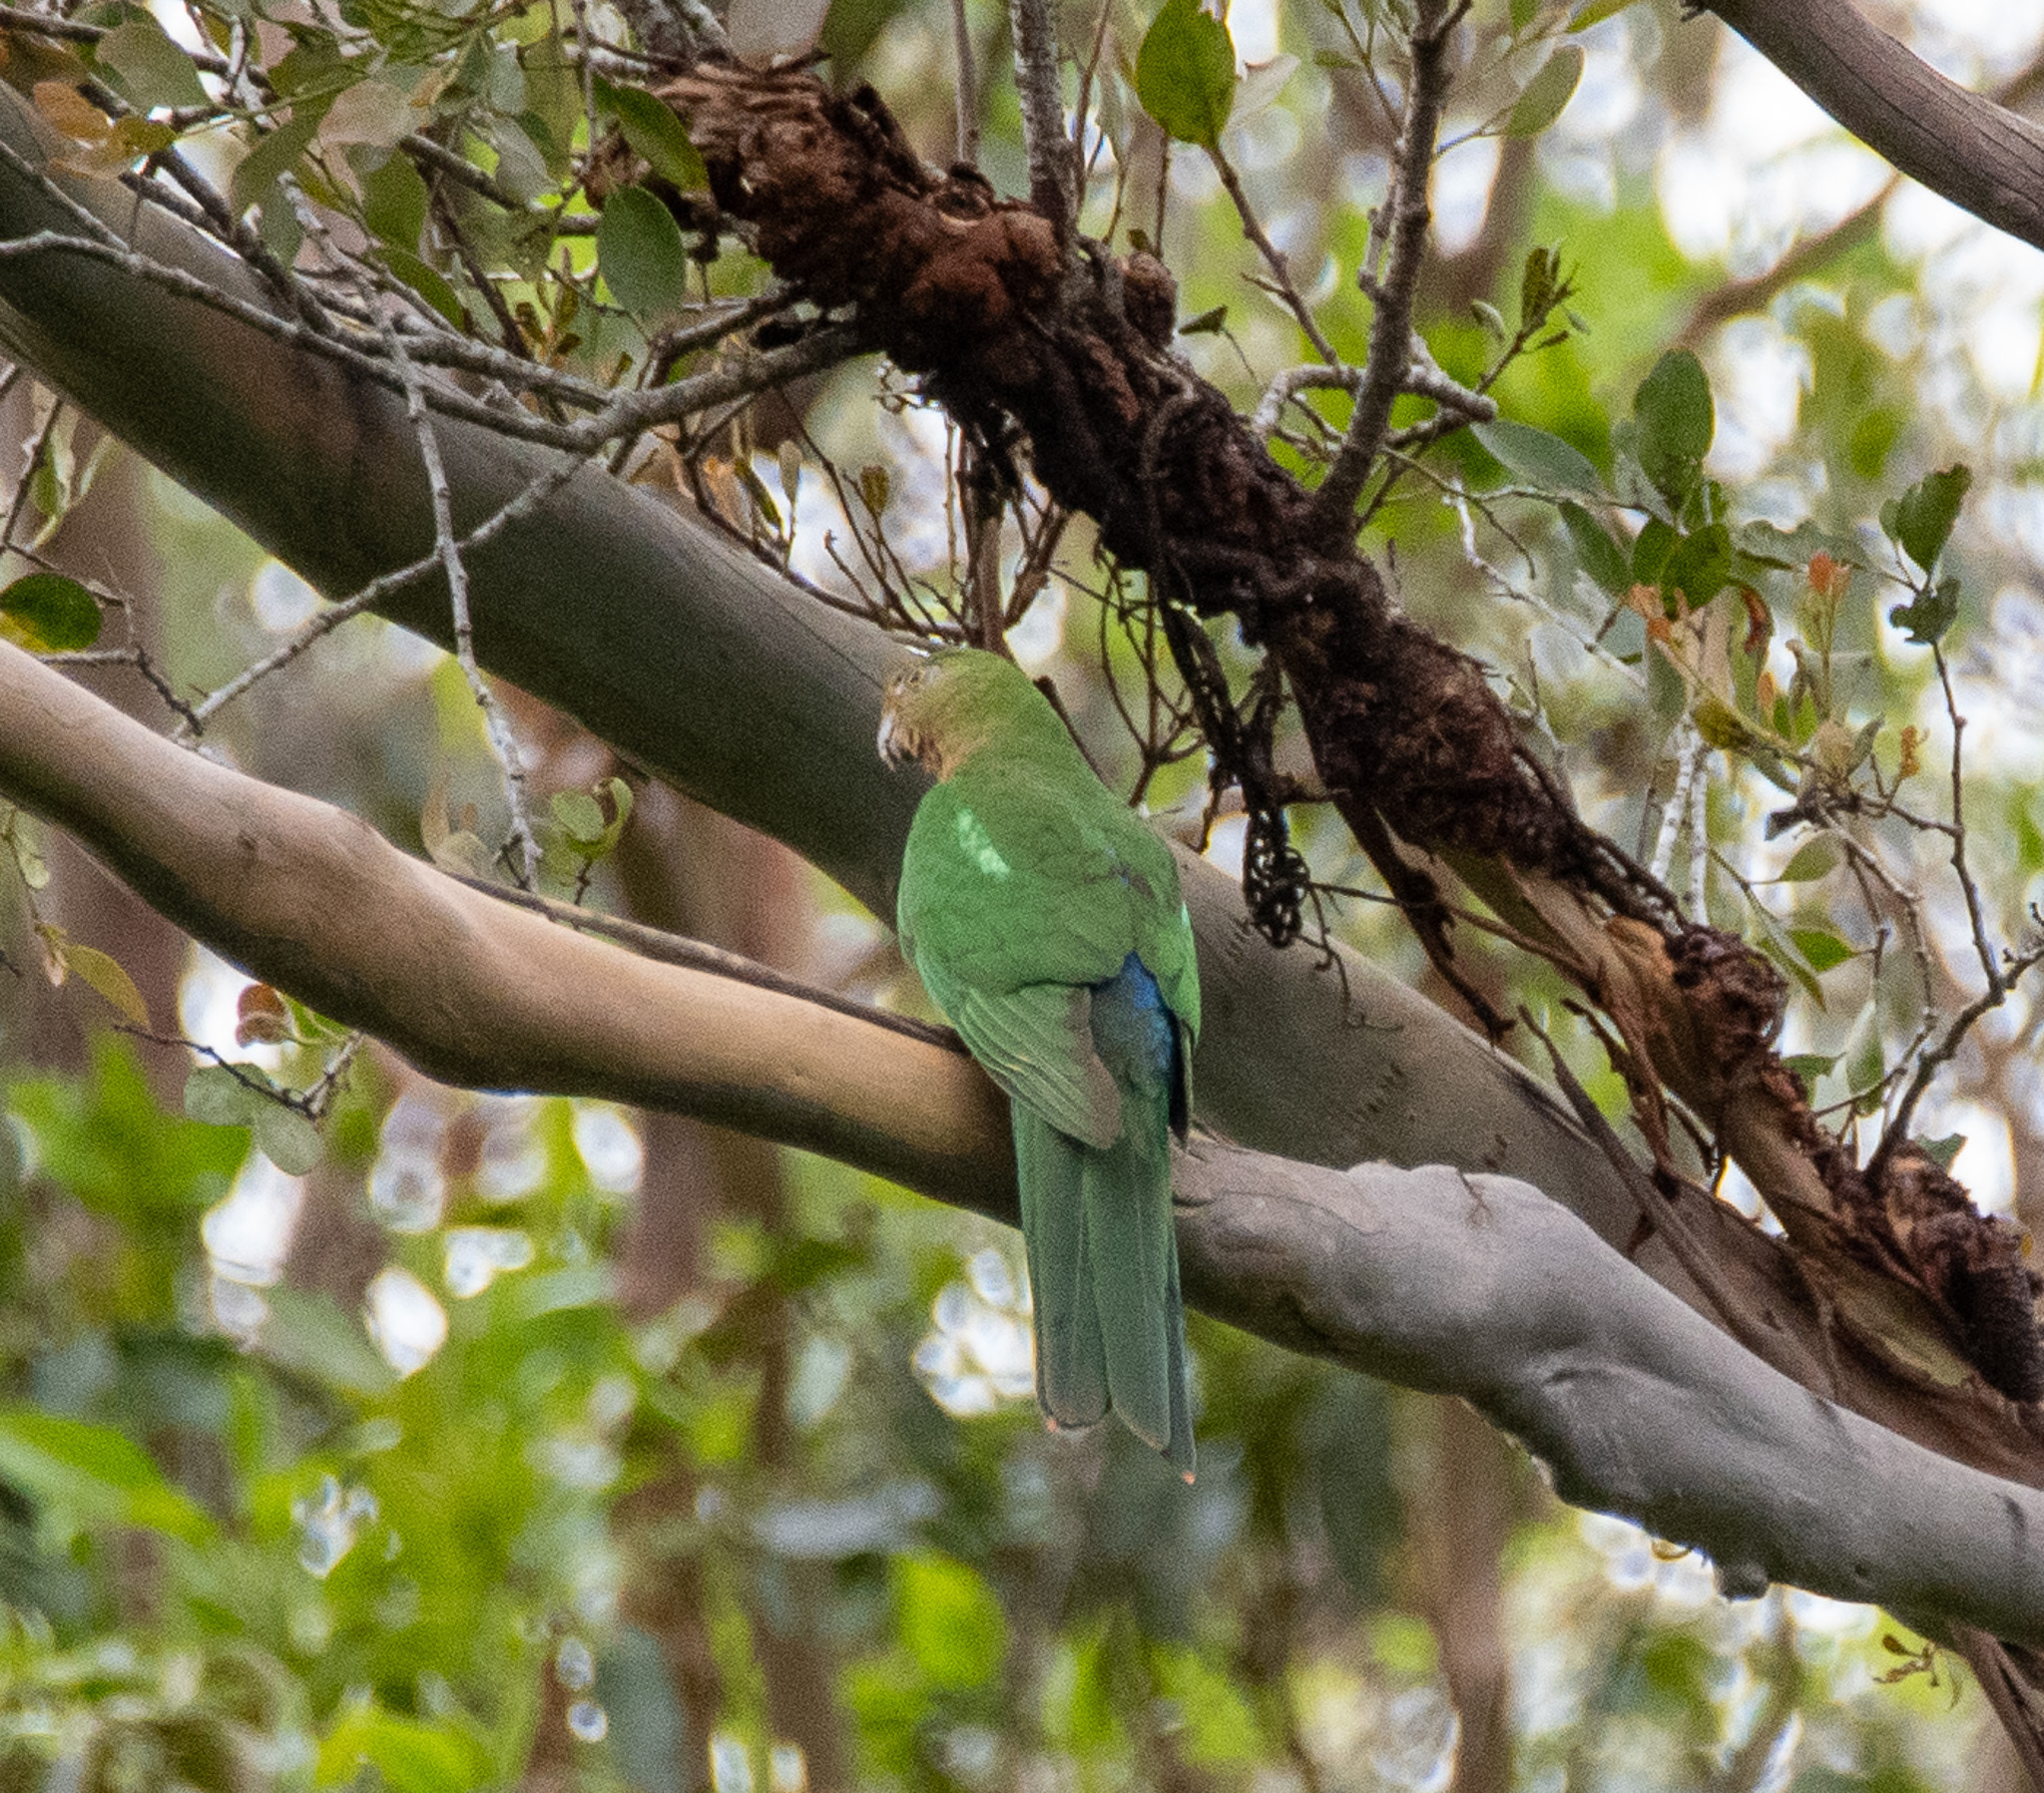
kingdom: Animalia
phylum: Chordata
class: Aves
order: Psittaciformes
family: Psittacidae
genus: Alisterus
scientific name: Alisterus scapularis
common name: Australian king parrot
